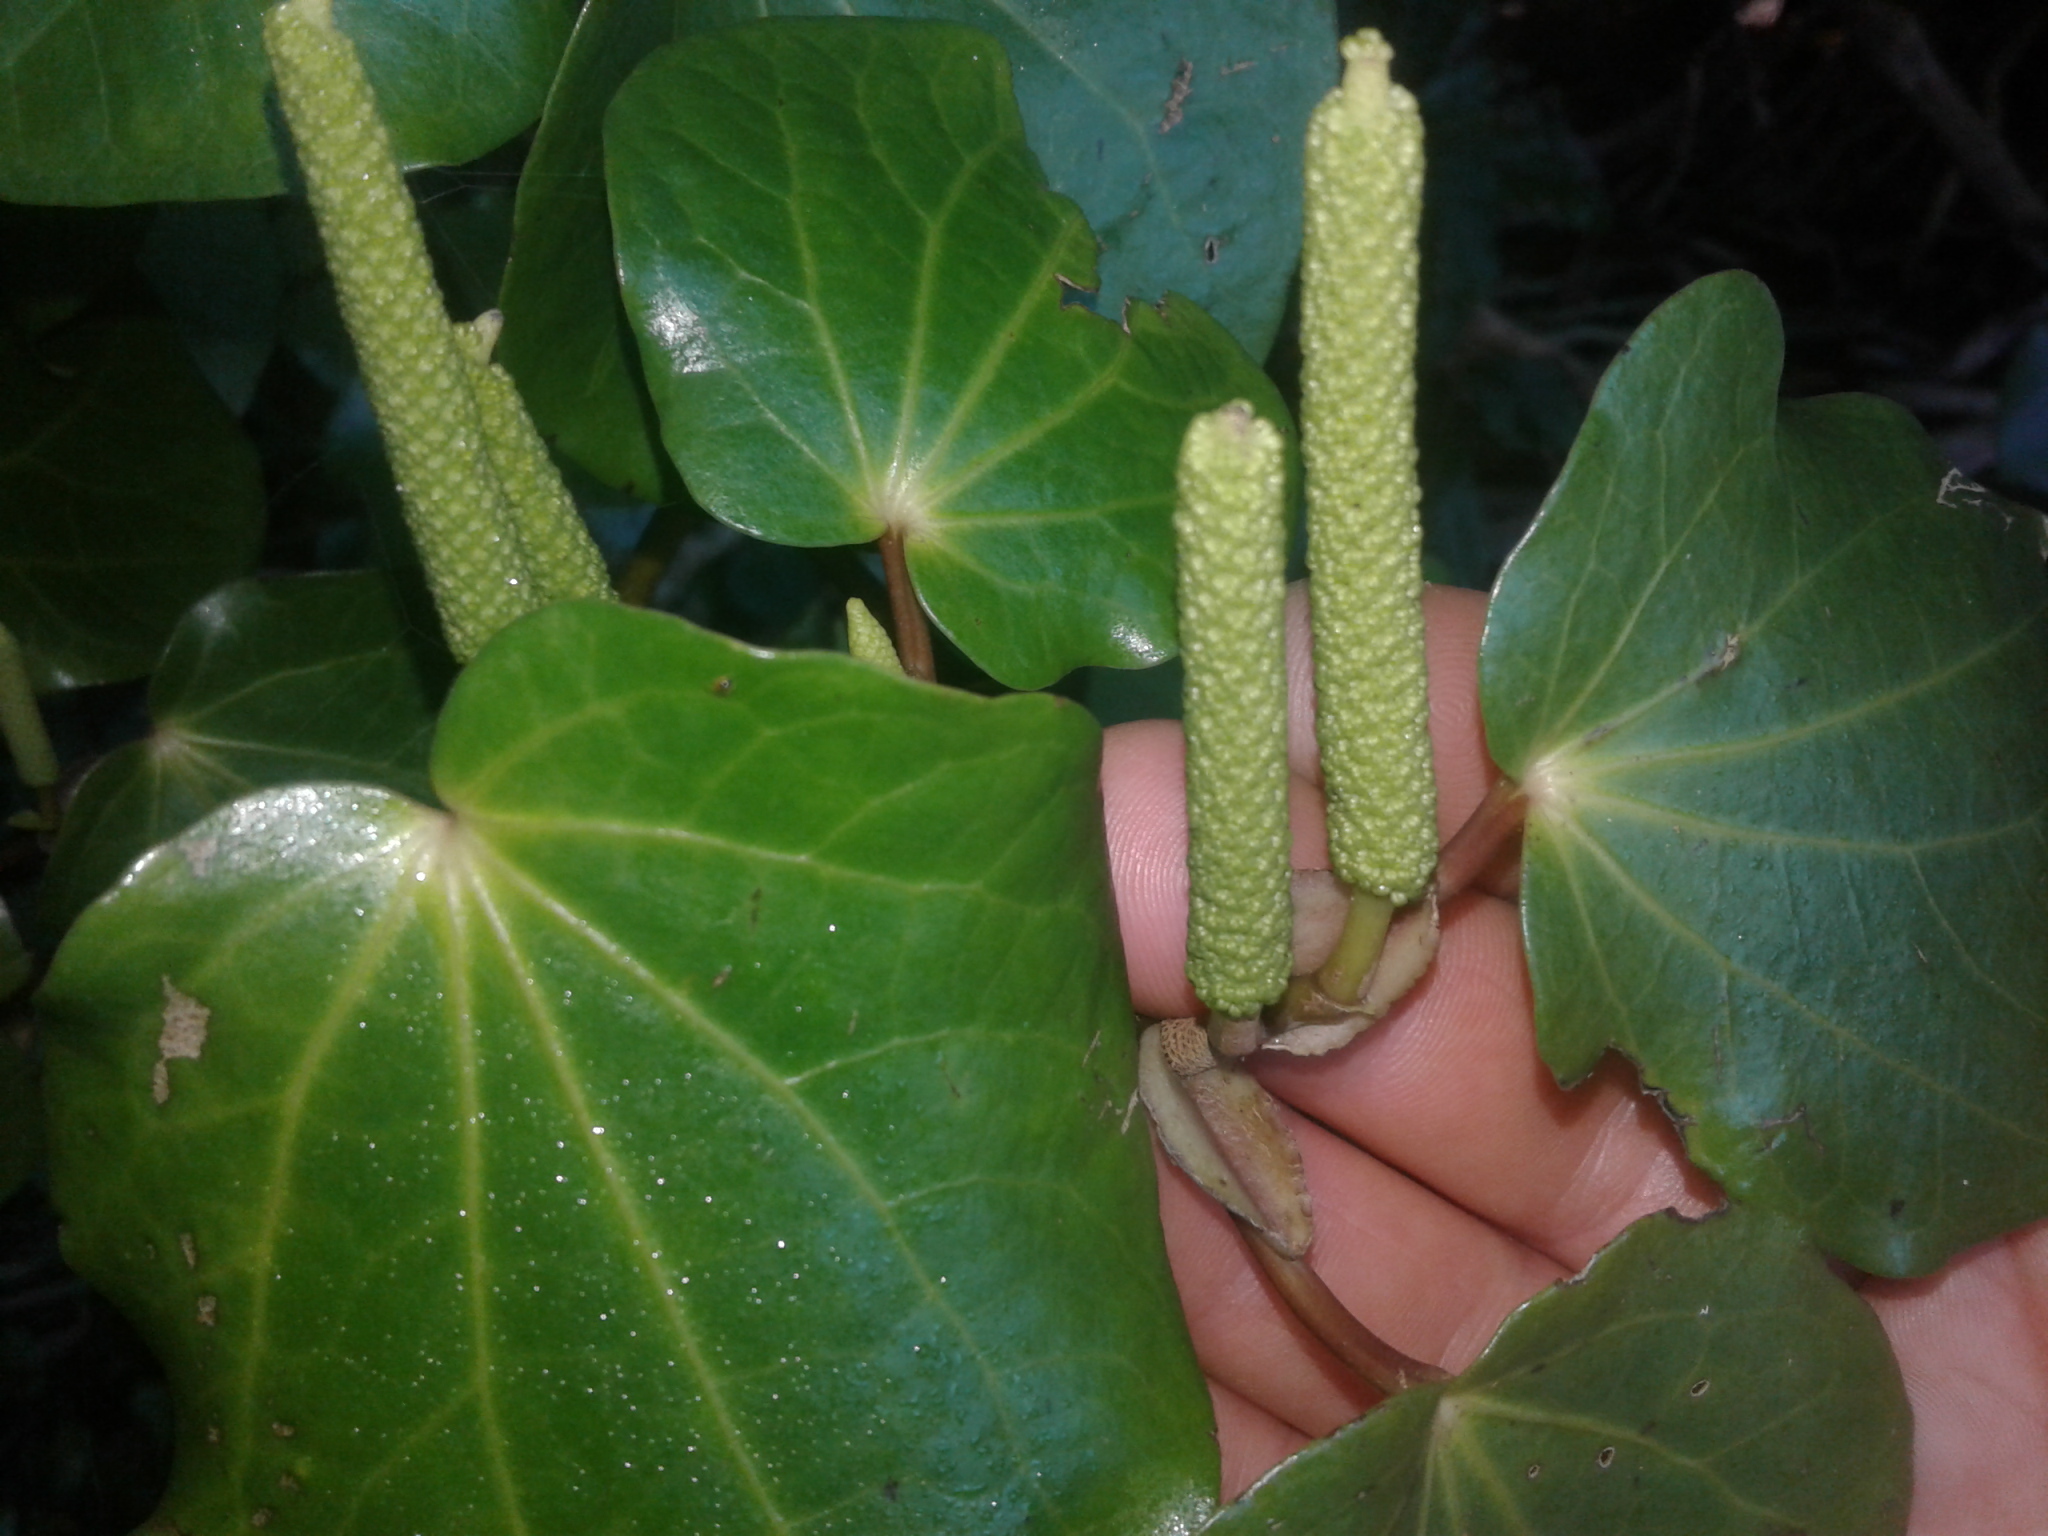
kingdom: Plantae
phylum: Tracheophyta
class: Magnoliopsida
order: Piperales
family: Piperaceae
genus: Macropiper
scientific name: Macropiper excelsum
